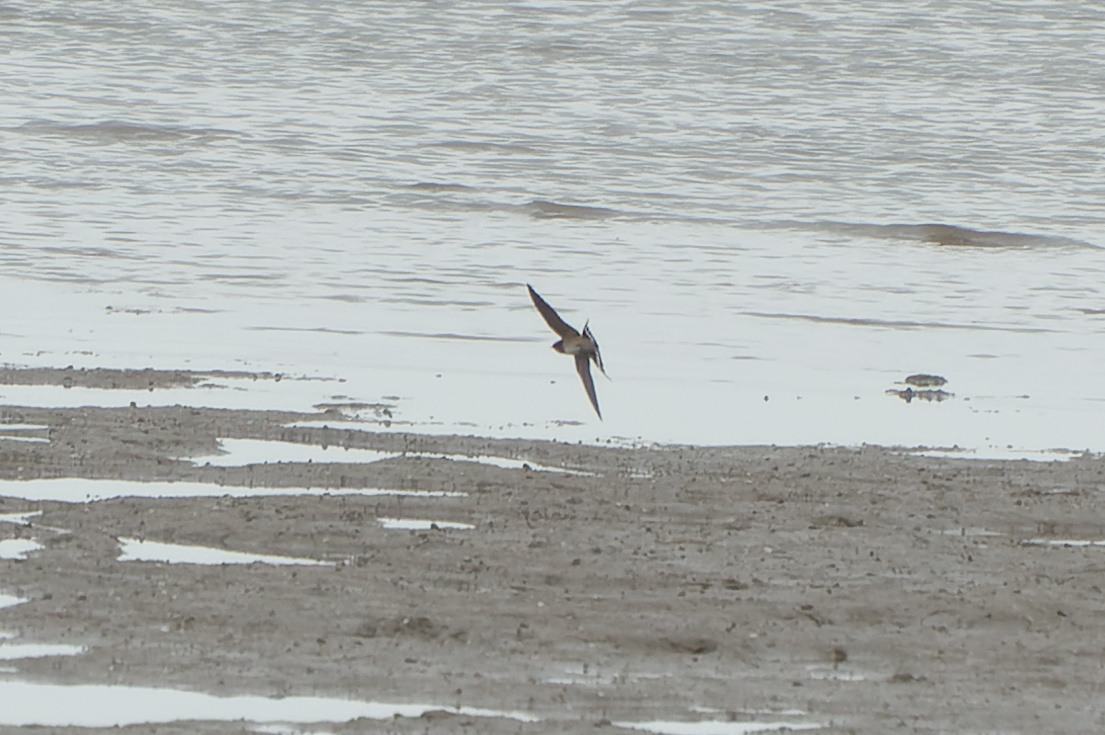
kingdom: Animalia
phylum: Chordata
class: Aves
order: Passeriformes
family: Hirundinidae
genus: Hirundo
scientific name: Hirundo neoxena
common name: Welcome swallow
